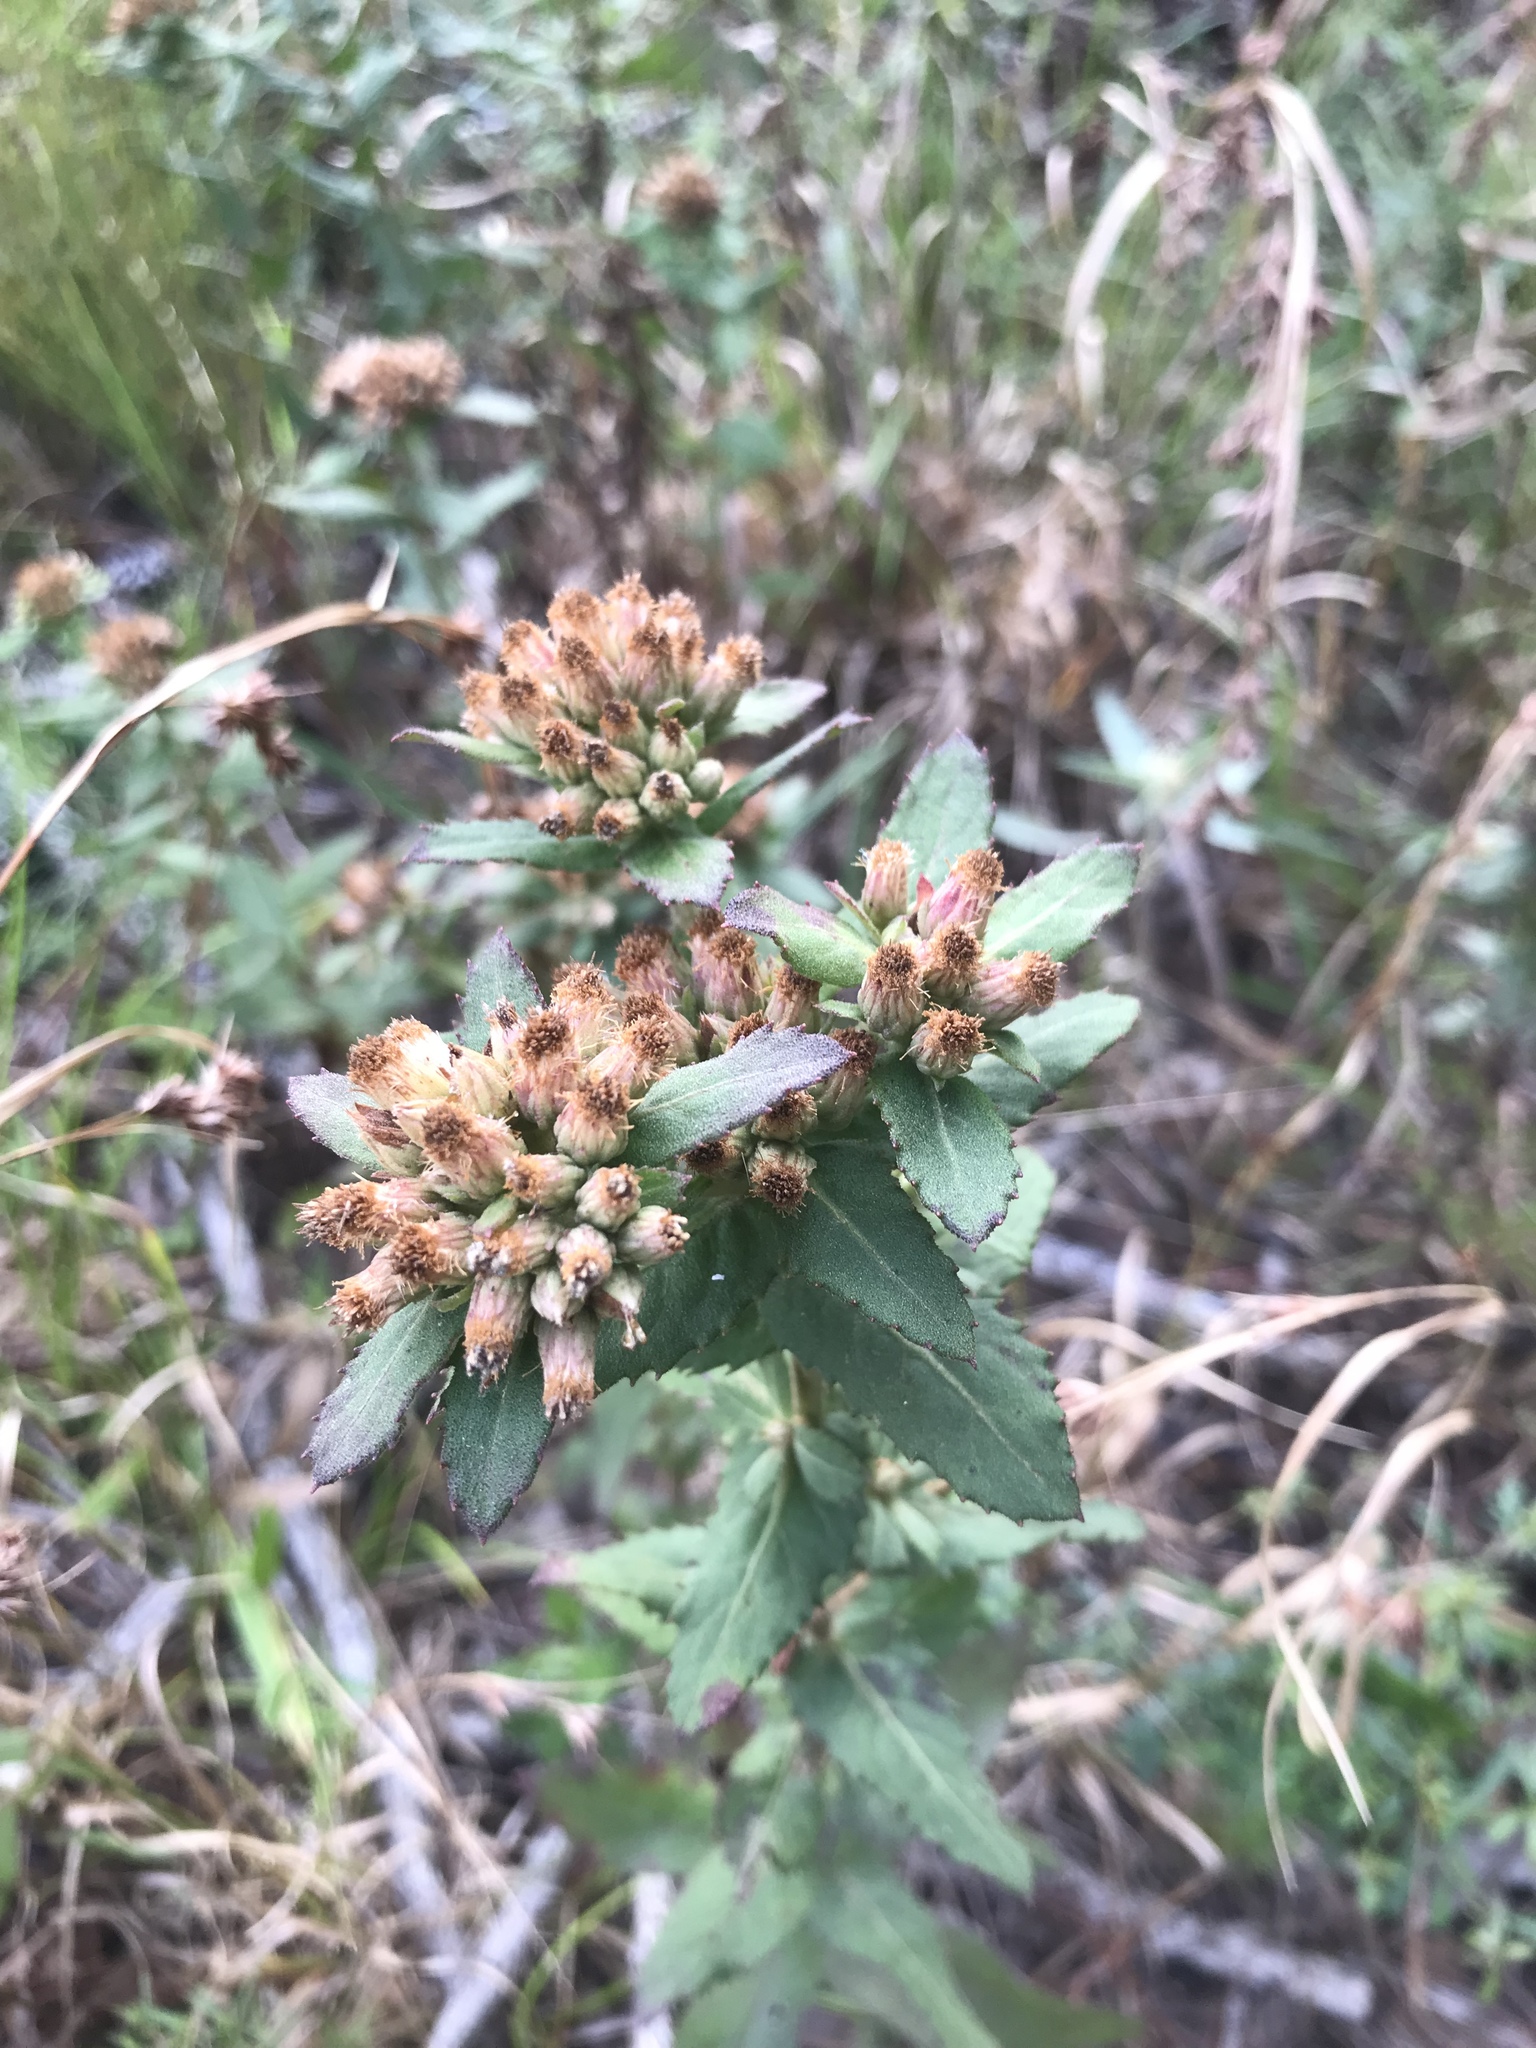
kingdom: Plantae
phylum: Tracheophyta
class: Magnoliopsida
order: Asterales
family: Asteraceae
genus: Pluchea
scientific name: Pluchea foetida
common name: Stinking camphorweed
